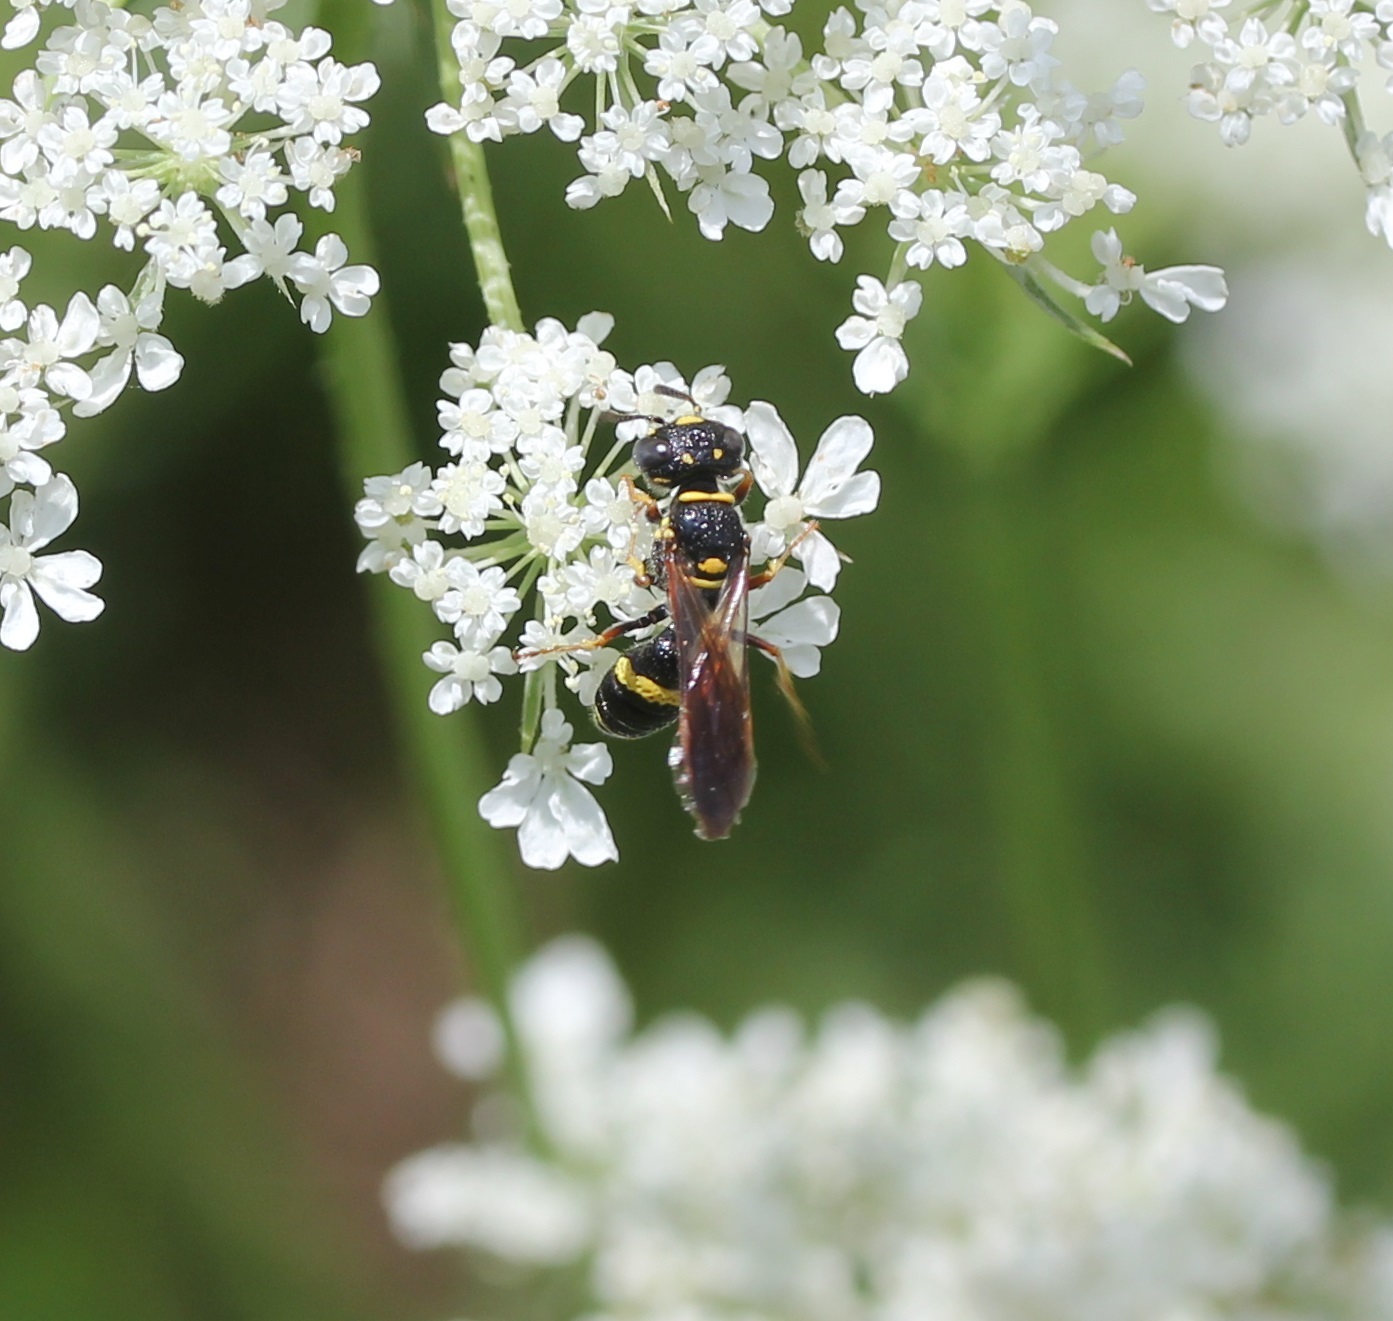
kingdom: Animalia
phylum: Arthropoda
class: Insecta
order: Hymenoptera
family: Crabronidae
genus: Philanthus
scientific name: Philanthus gibbosus
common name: Humped beewolf
